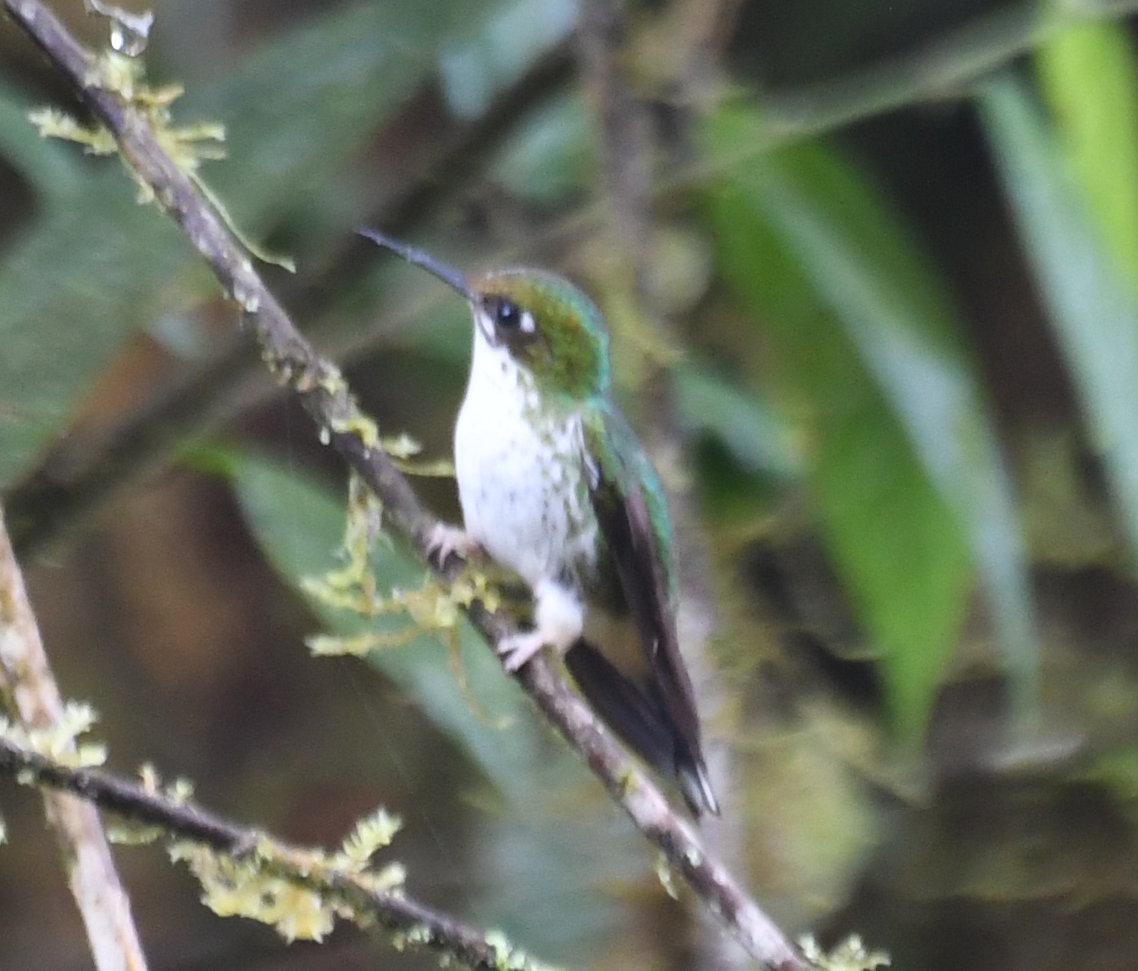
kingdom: Animalia
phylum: Chordata
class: Aves
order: Apodiformes
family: Trochilidae
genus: Ocreatus
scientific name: Ocreatus underwoodii
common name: Booted racket-tail
